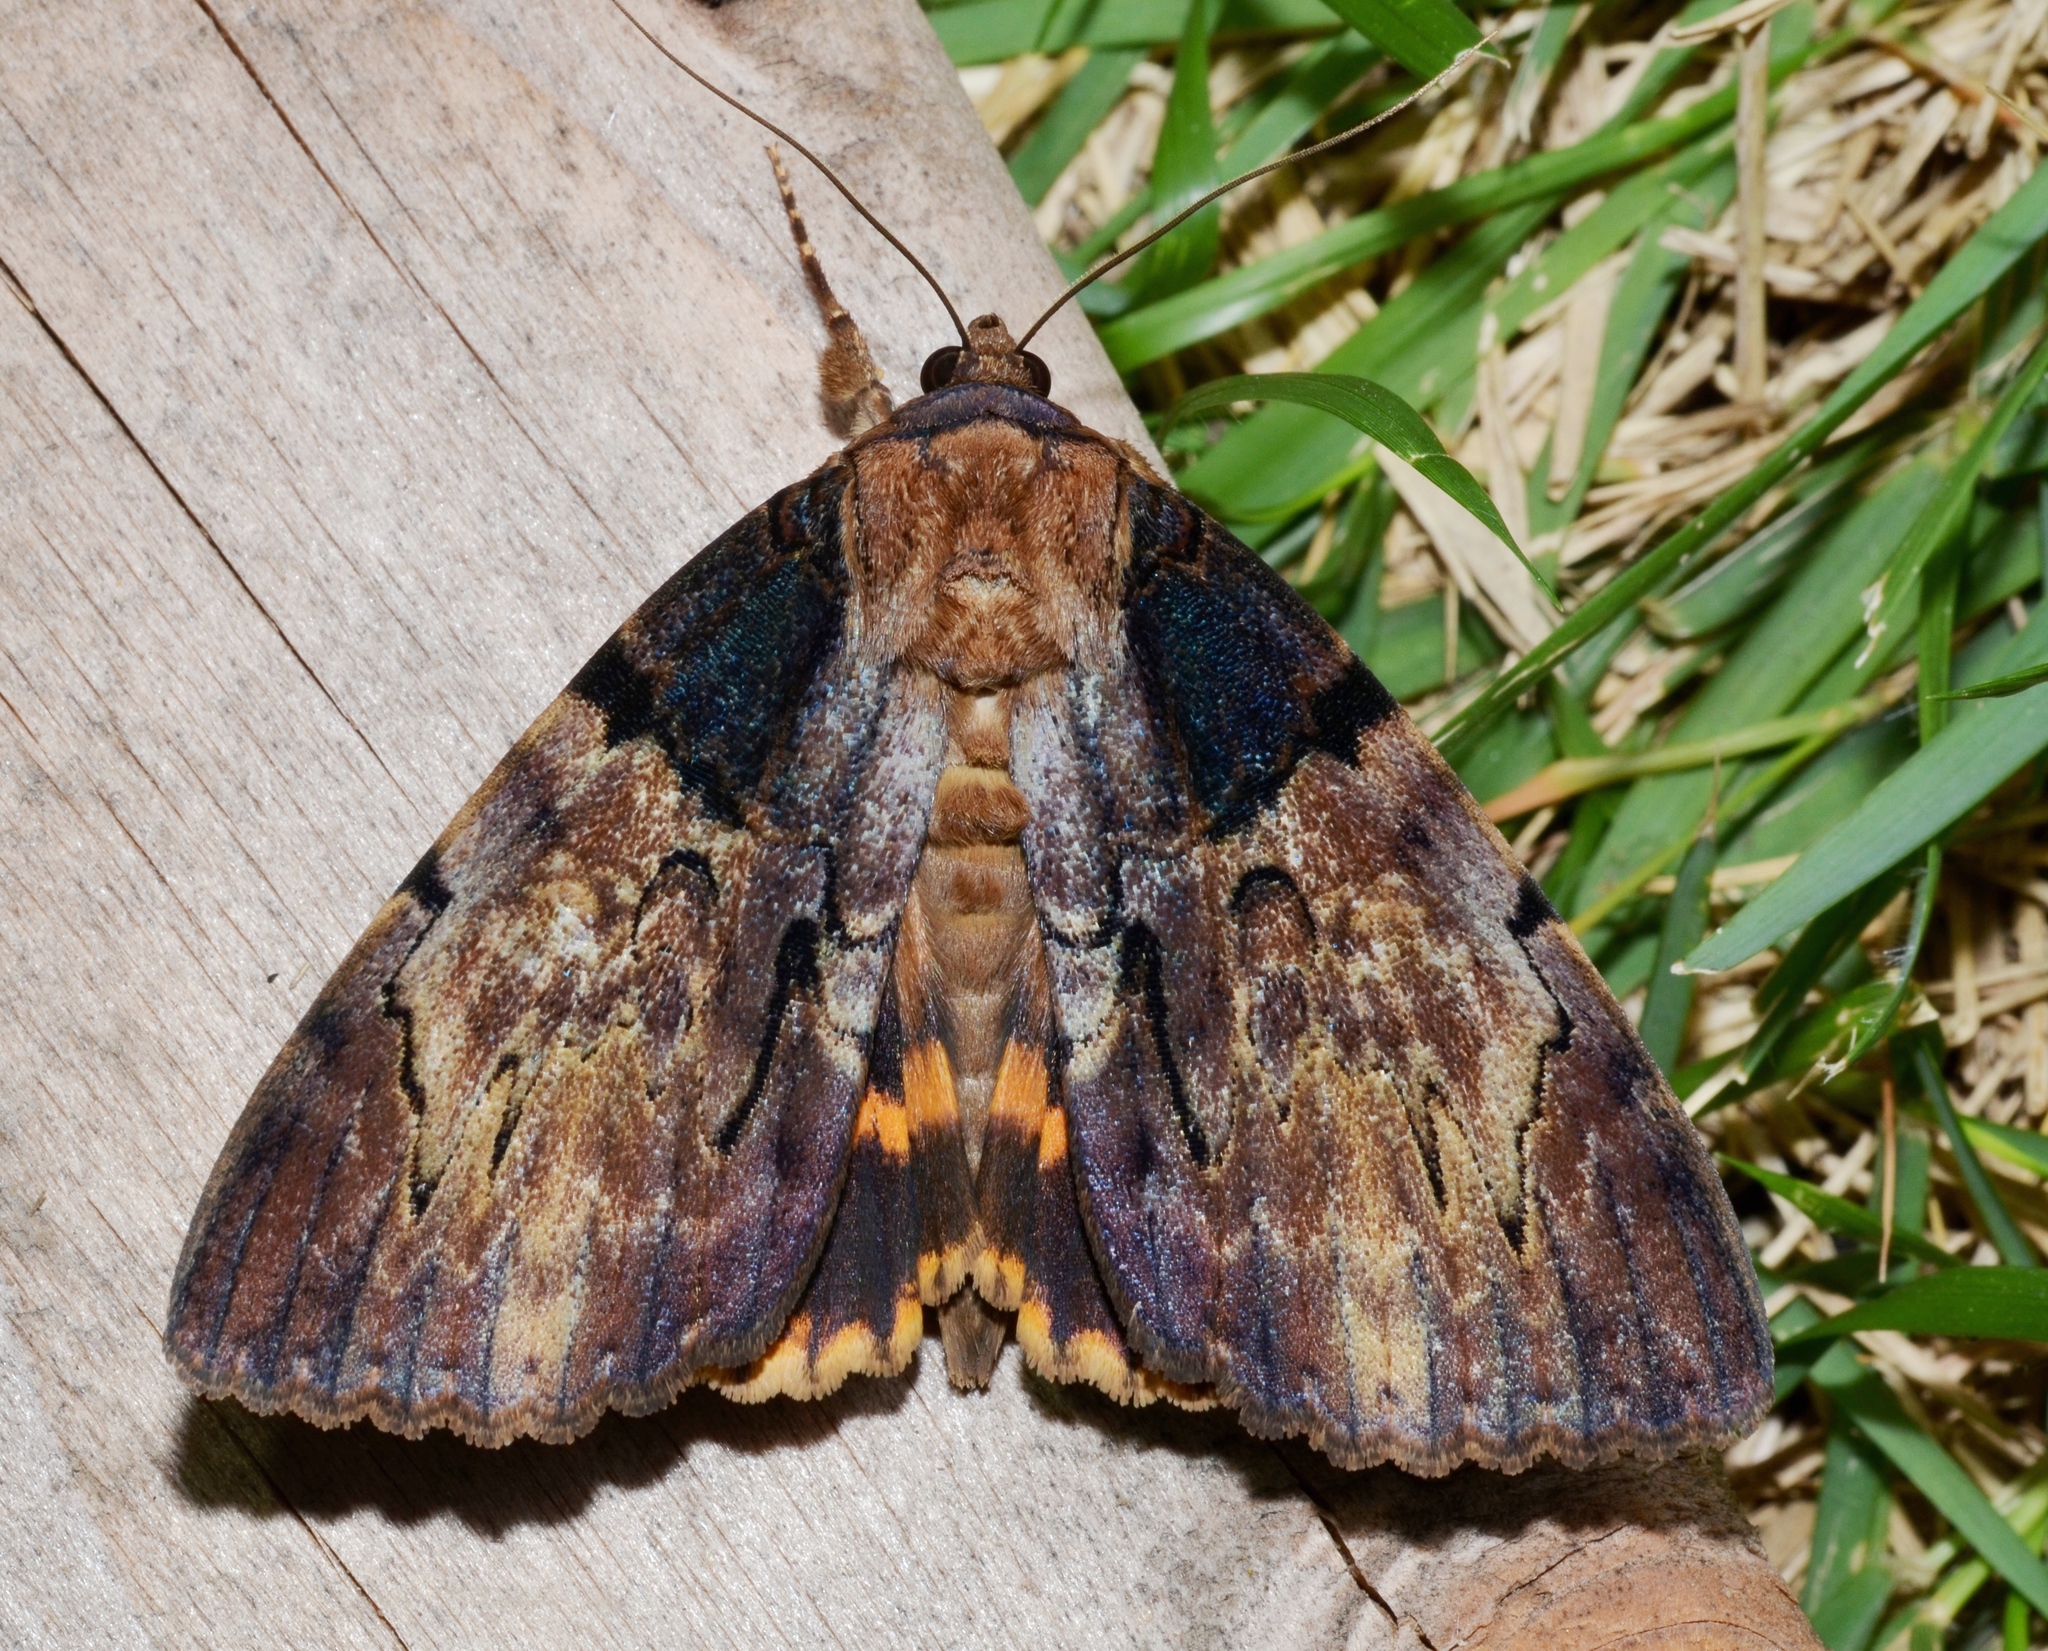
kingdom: Animalia
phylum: Arthropoda
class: Insecta
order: Lepidoptera
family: Erebidae
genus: Catocala
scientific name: Catocala nebulosa
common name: Clouded underwing
